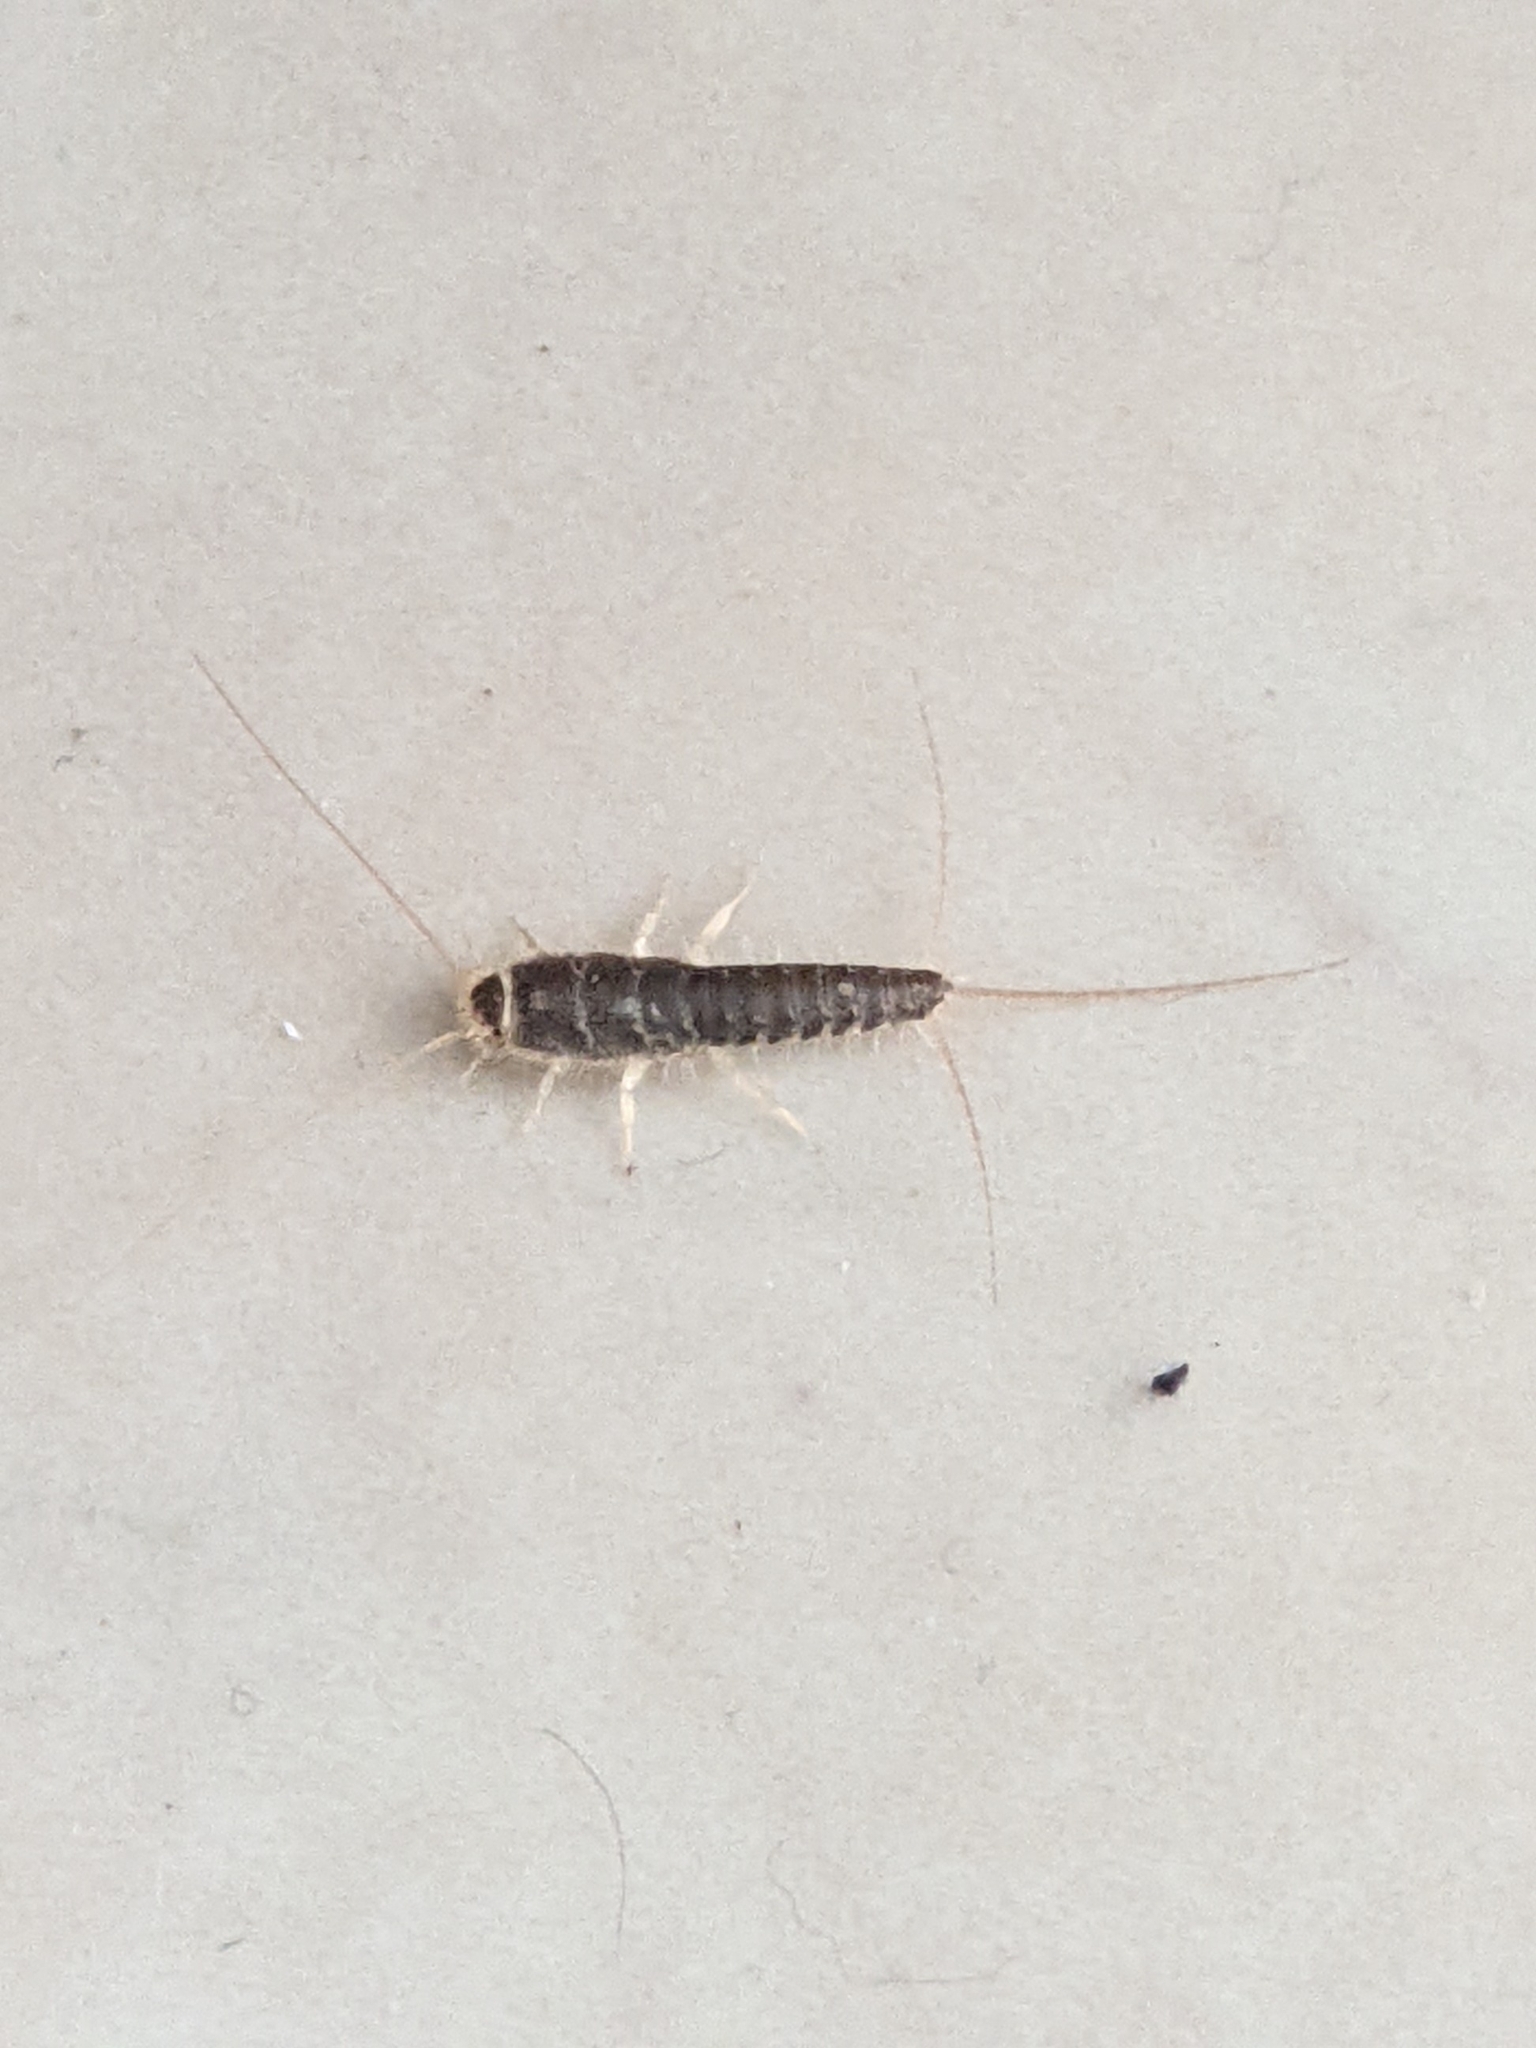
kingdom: Animalia
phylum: Arthropoda
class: Insecta
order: Zygentoma
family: Lepismatidae
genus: Ctenolepisma
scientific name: Ctenolepisma longicaudatum
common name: Silverfish
